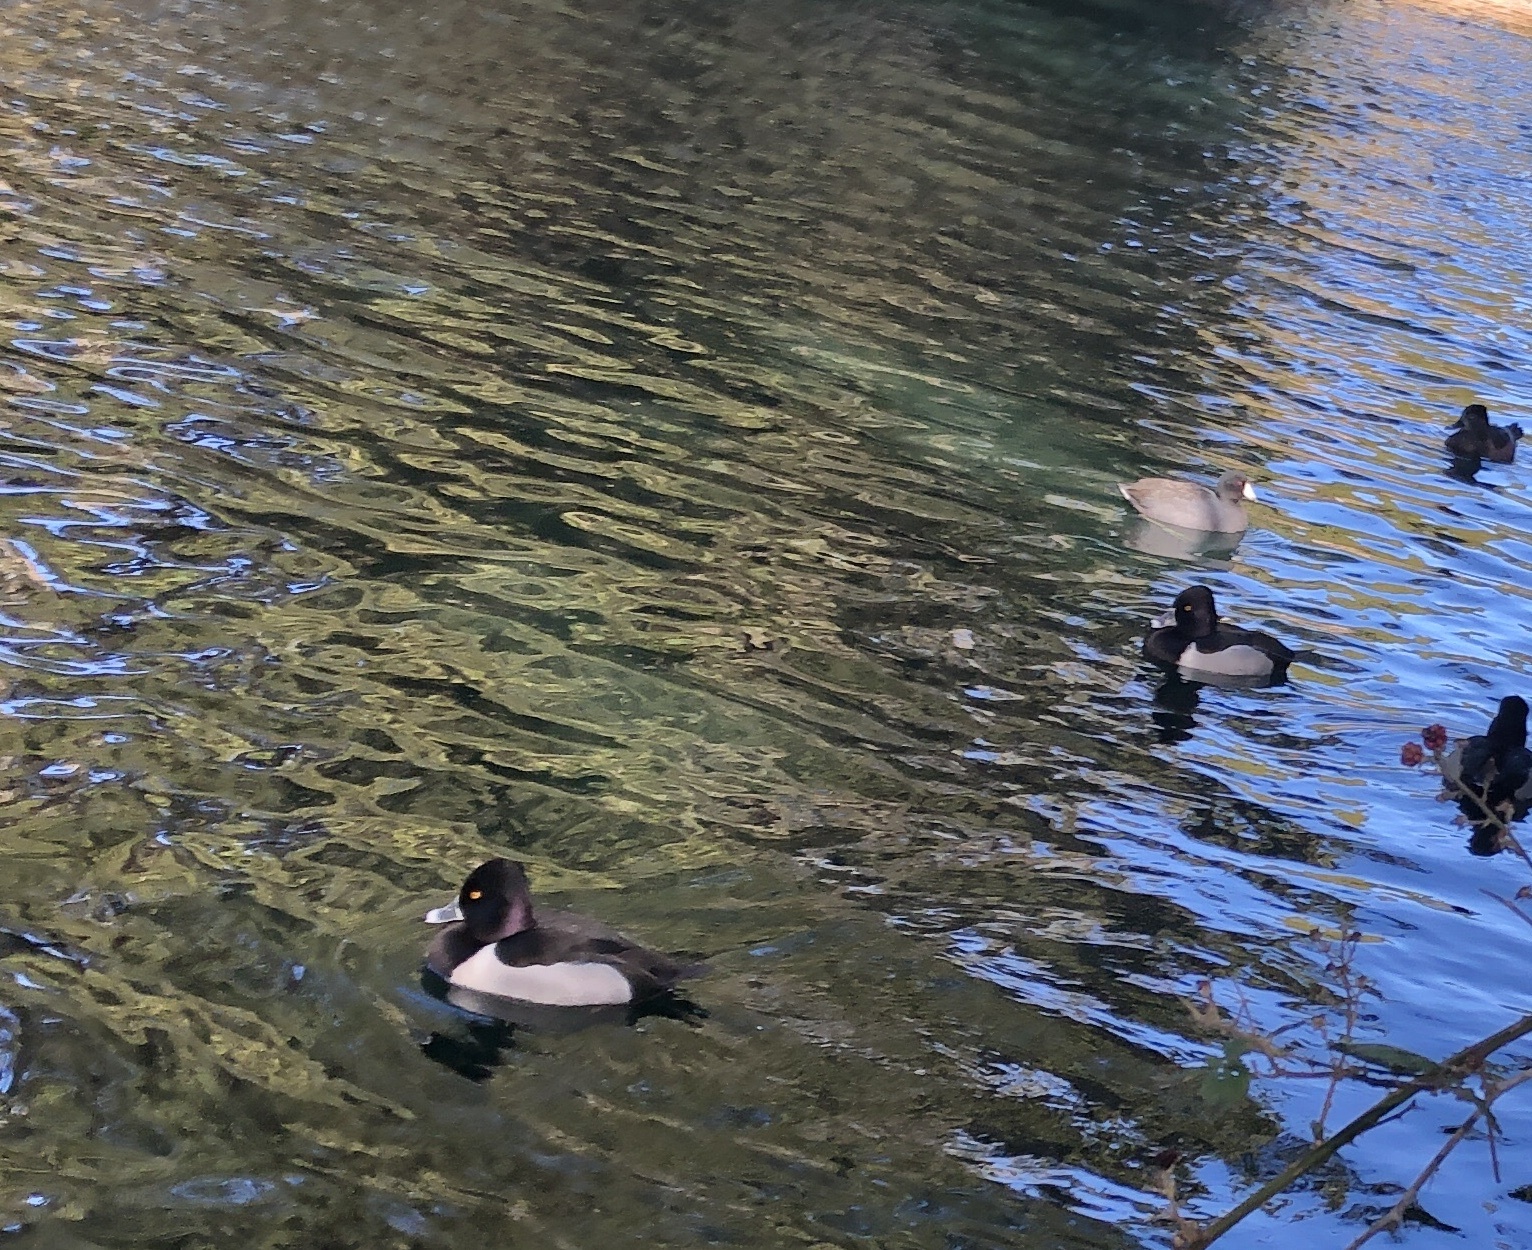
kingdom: Animalia
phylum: Chordata
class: Aves
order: Anseriformes
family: Anatidae
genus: Aythya
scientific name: Aythya collaris
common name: Ring-necked duck
